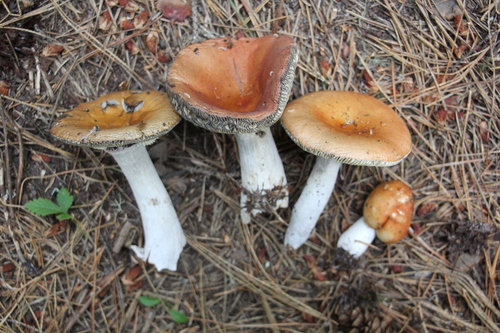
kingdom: Fungi
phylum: Basidiomycota
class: Agaricomycetes
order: Russulales
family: Russulaceae
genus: Russula
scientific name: Russula decolorans
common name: Copper brittlegill
